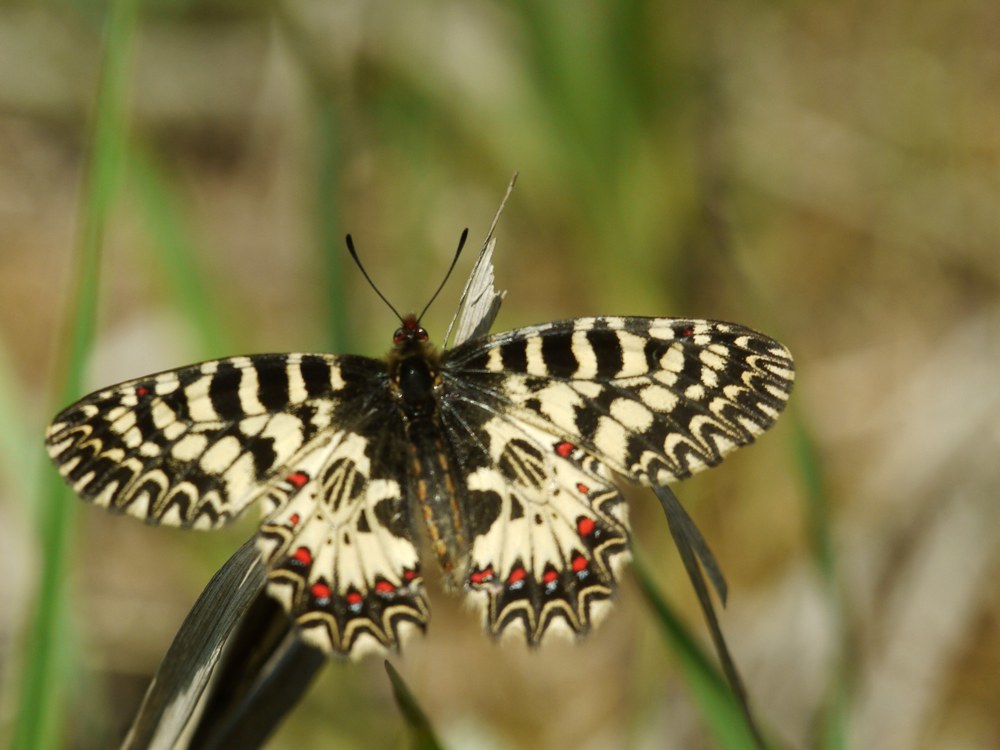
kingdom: Animalia
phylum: Arthropoda
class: Insecta
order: Lepidoptera
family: Papilionidae
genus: Zerynthia
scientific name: Zerynthia polyxena
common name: Southern festoon
